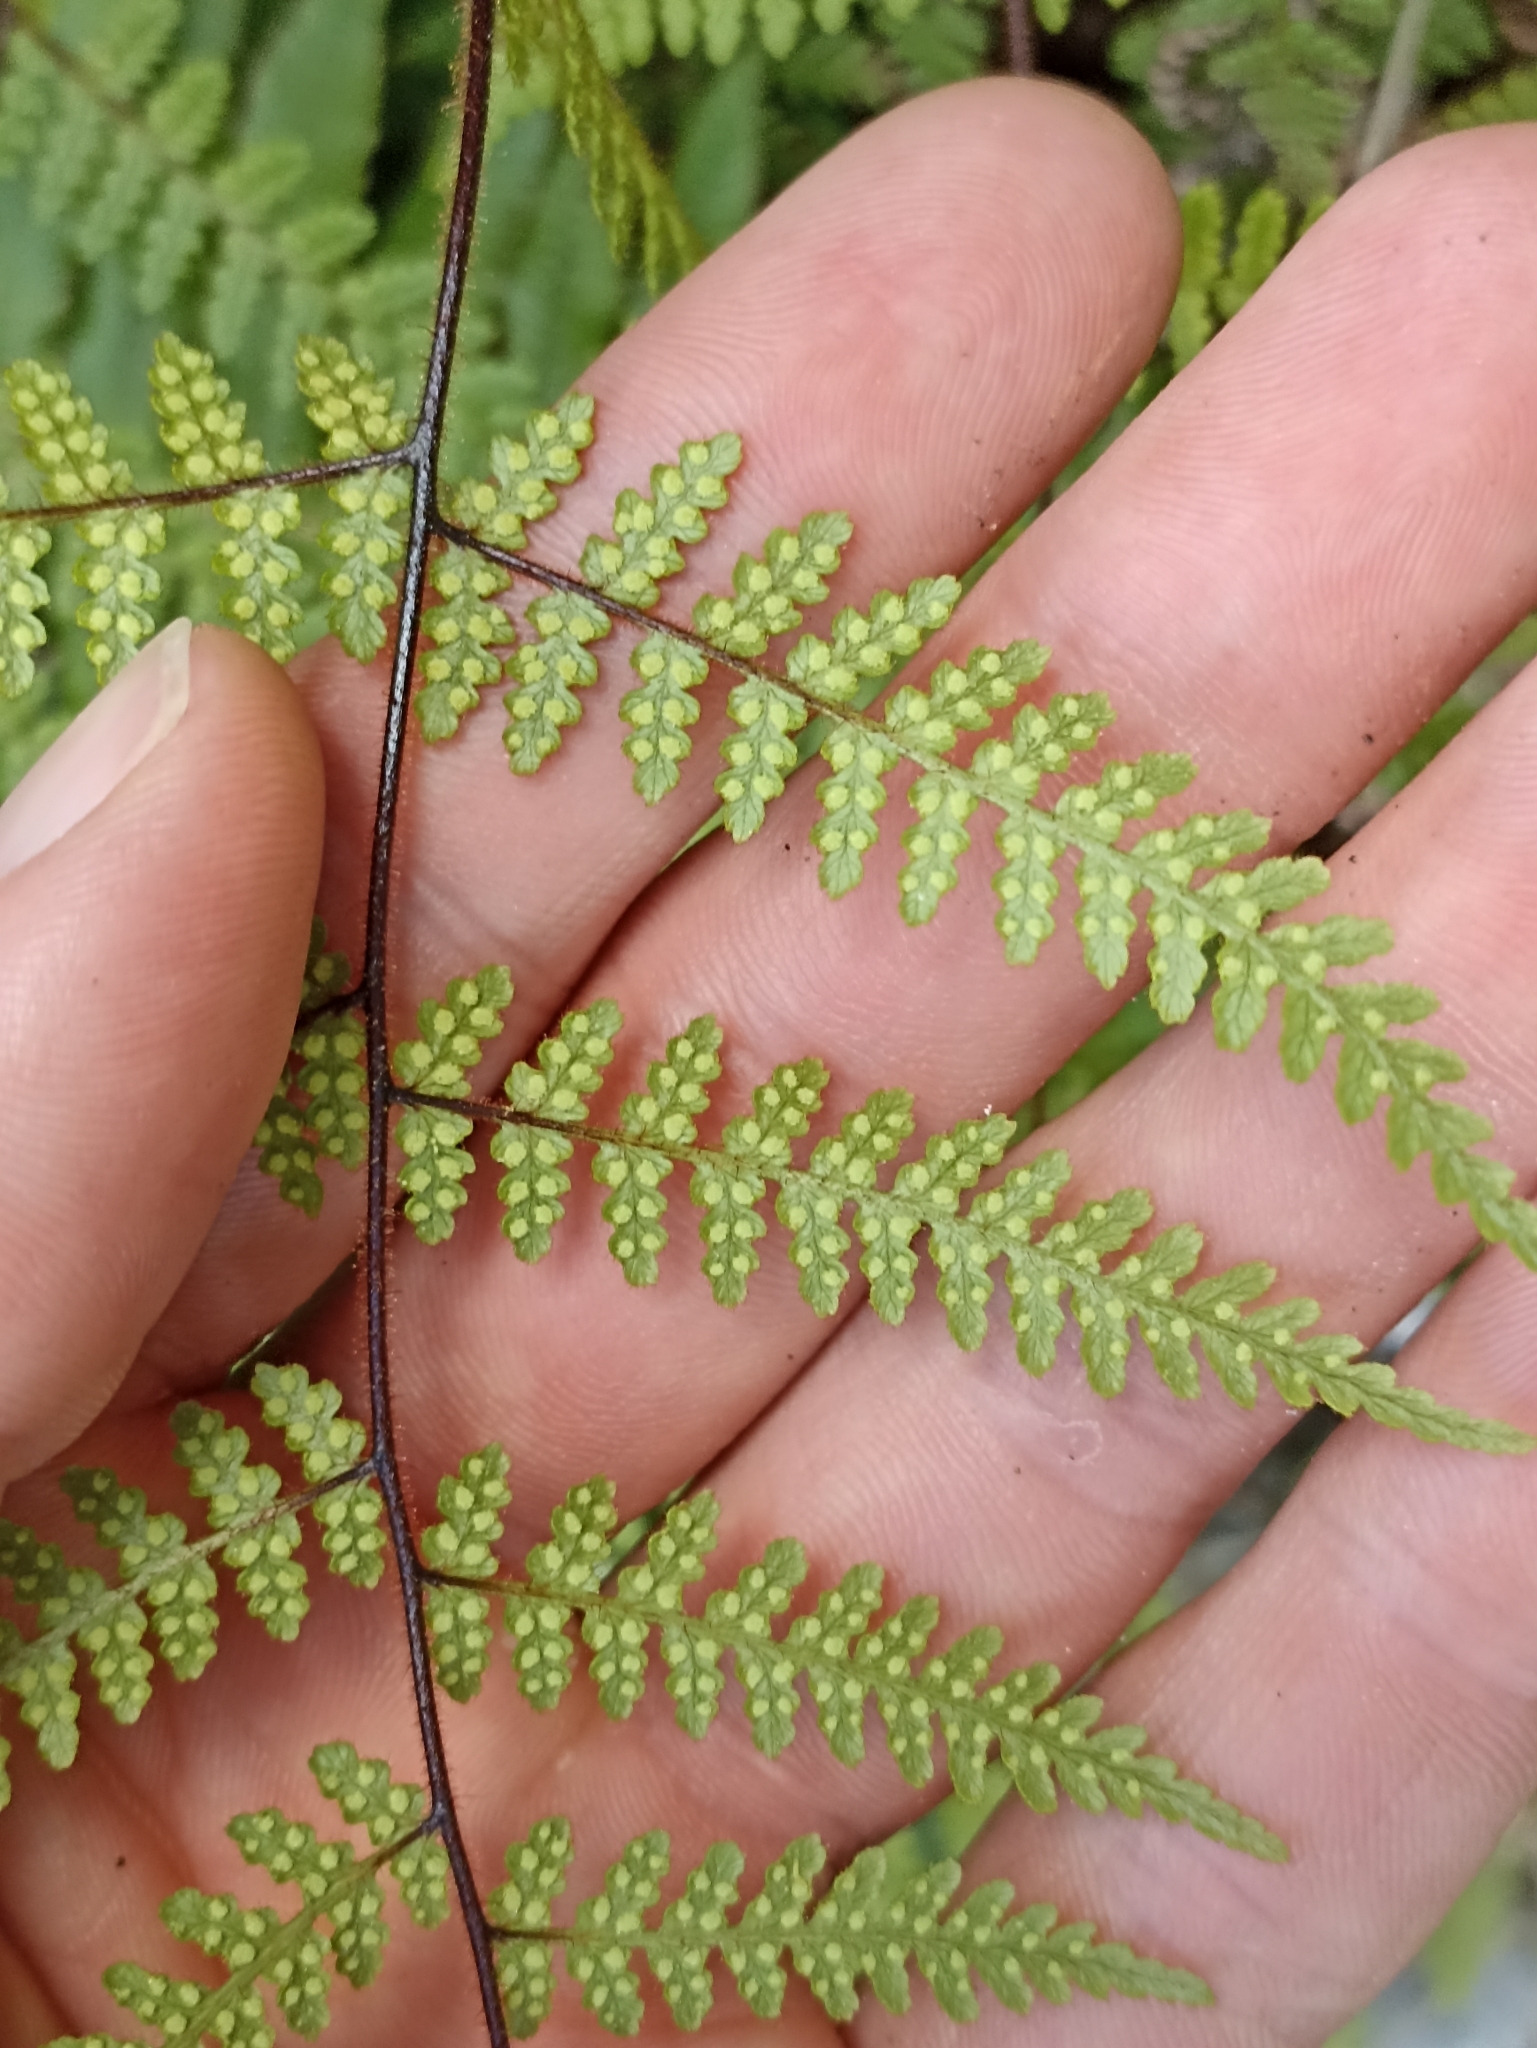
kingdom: Plantae
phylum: Tracheophyta
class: Polypodiopsida
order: Polypodiales
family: Dennstaedtiaceae
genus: Hypolepis
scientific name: Hypolepis rugosula
